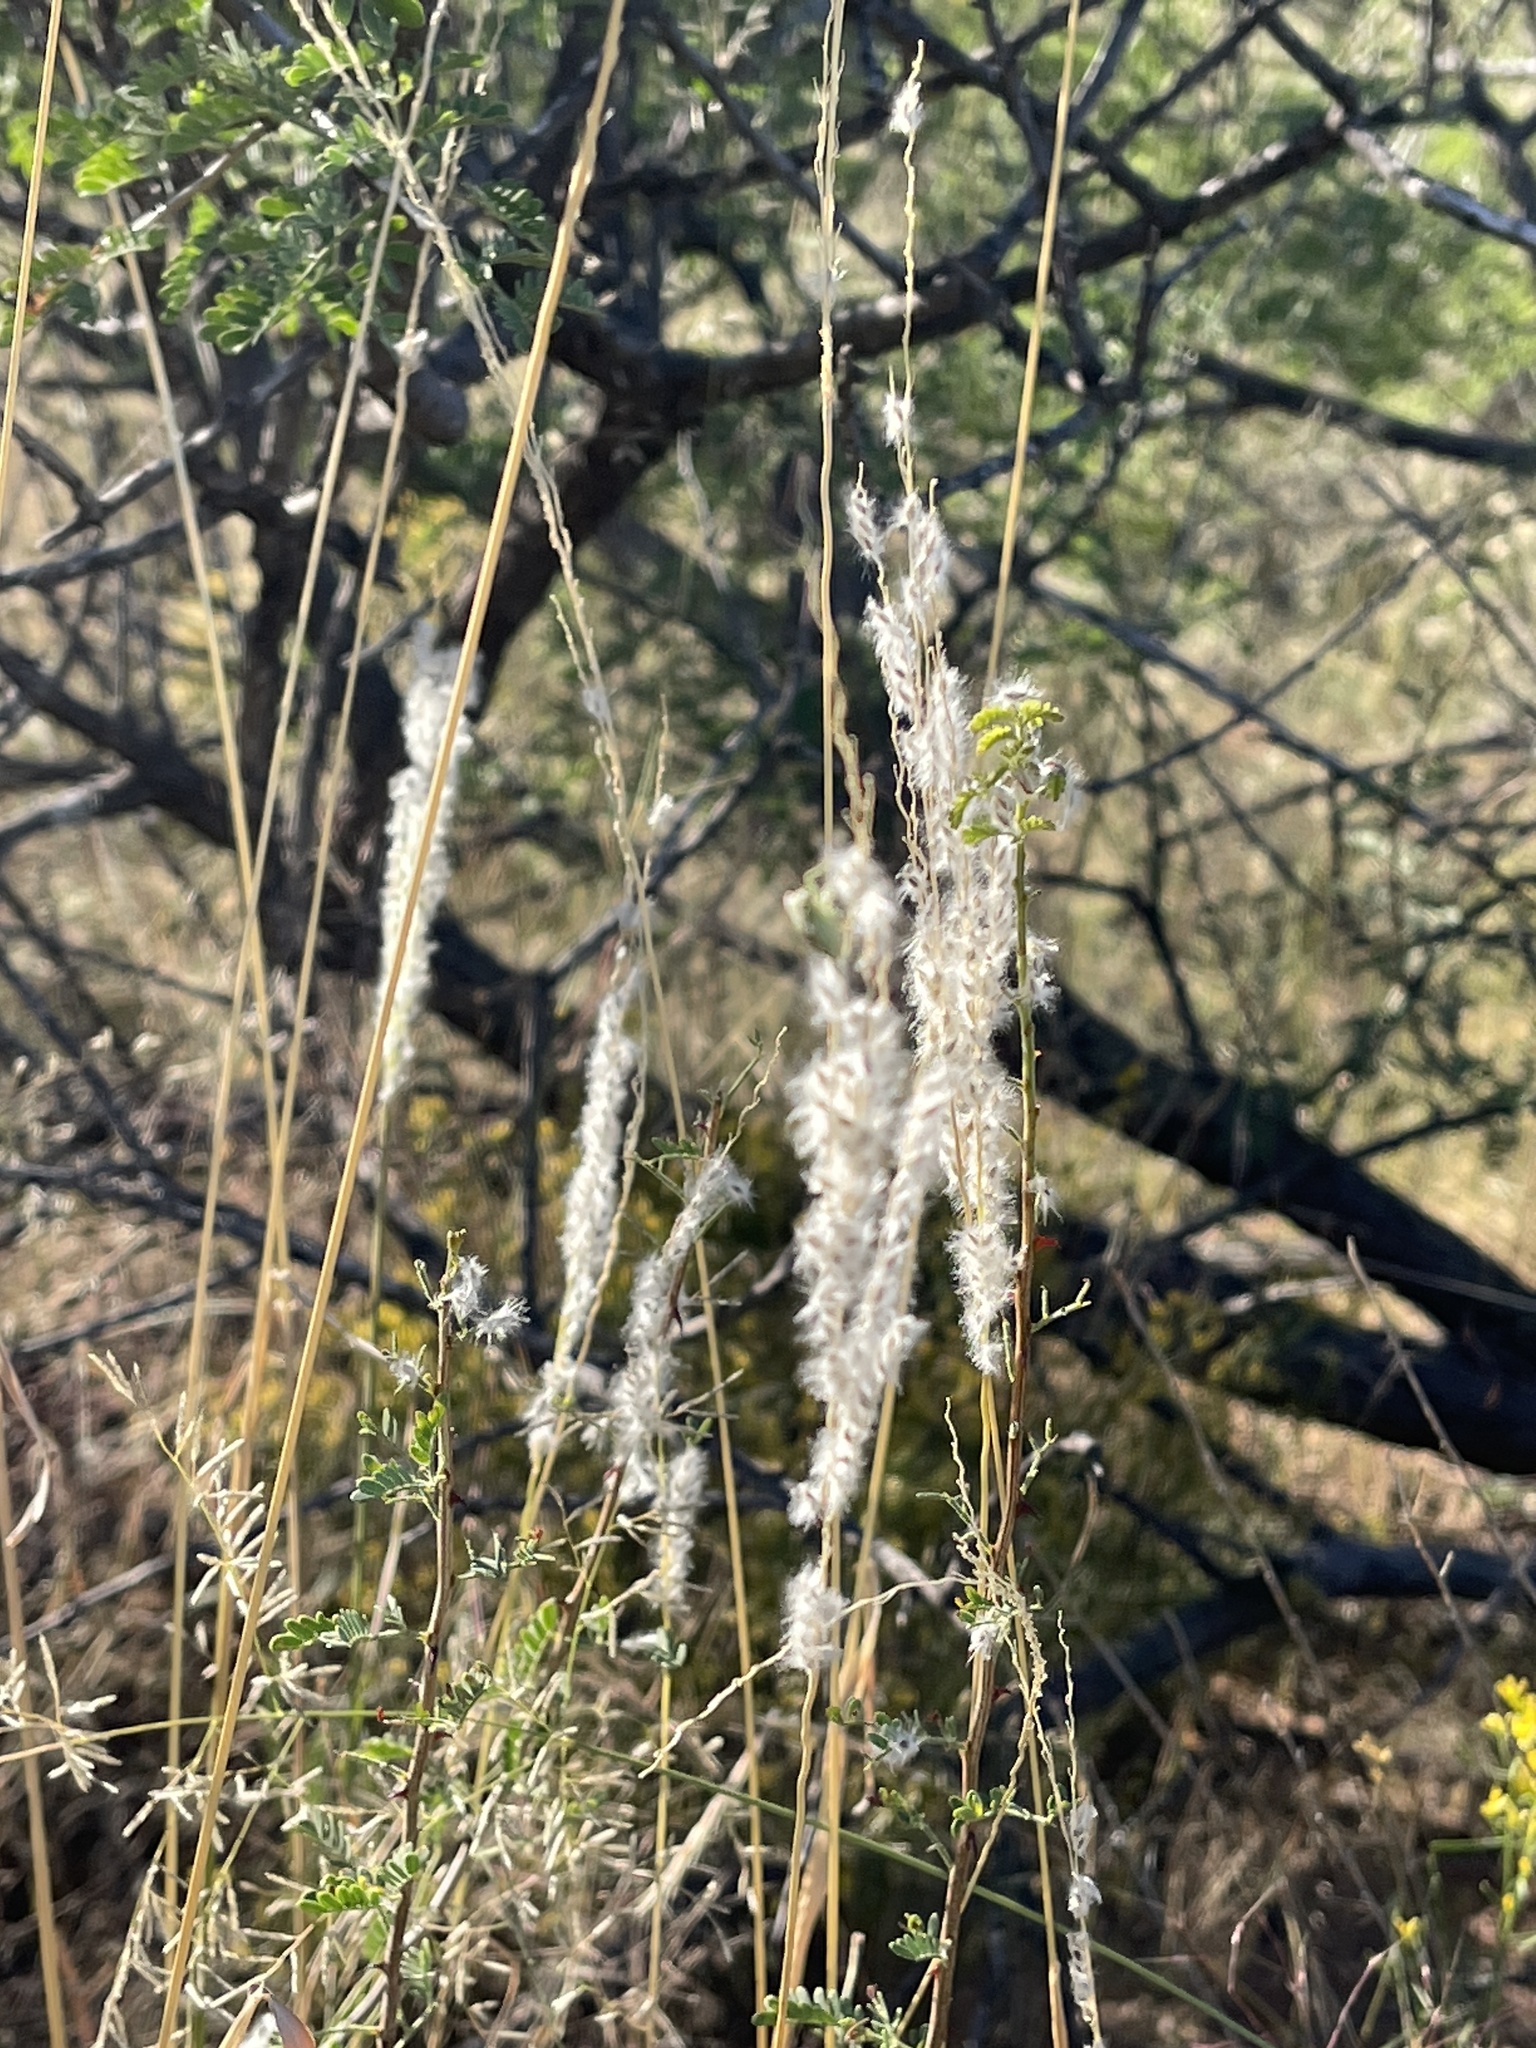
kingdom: Plantae
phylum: Tracheophyta
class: Liliopsida
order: Poales
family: Poaceae
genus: Digitaria
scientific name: Digitaria californica
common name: Arizona cottontop
